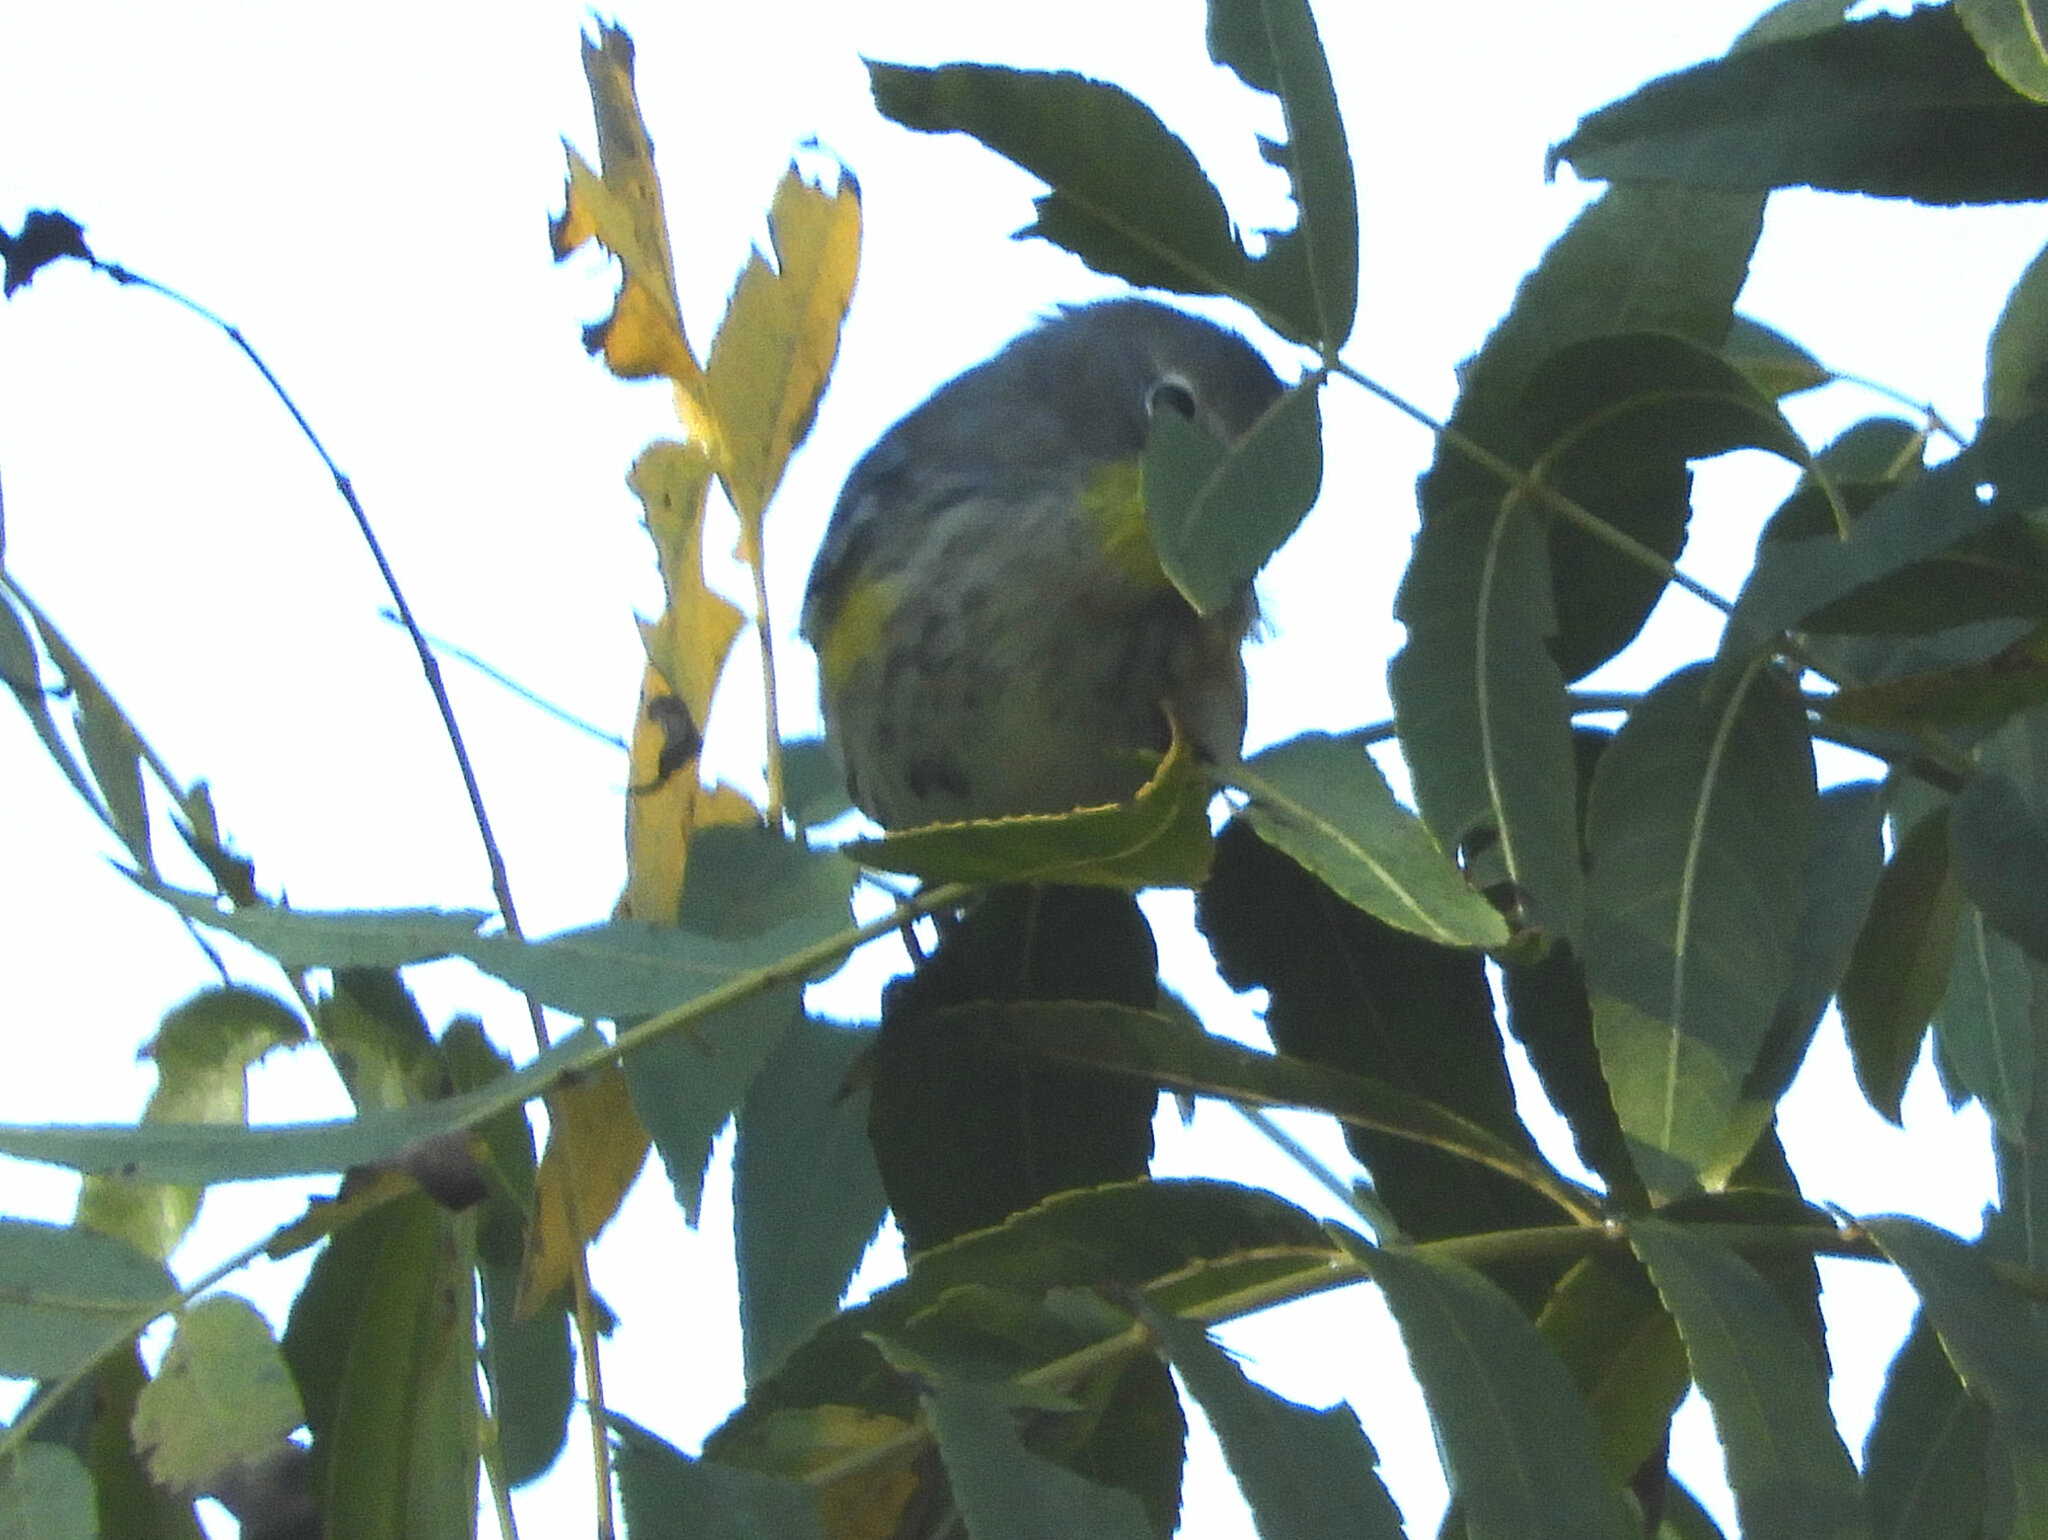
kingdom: Animalia
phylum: Chordata
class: Aves
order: Passeriformes
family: Parulidae
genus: Setophaga
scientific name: Setophaga auduboni
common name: Audubon's warbler
